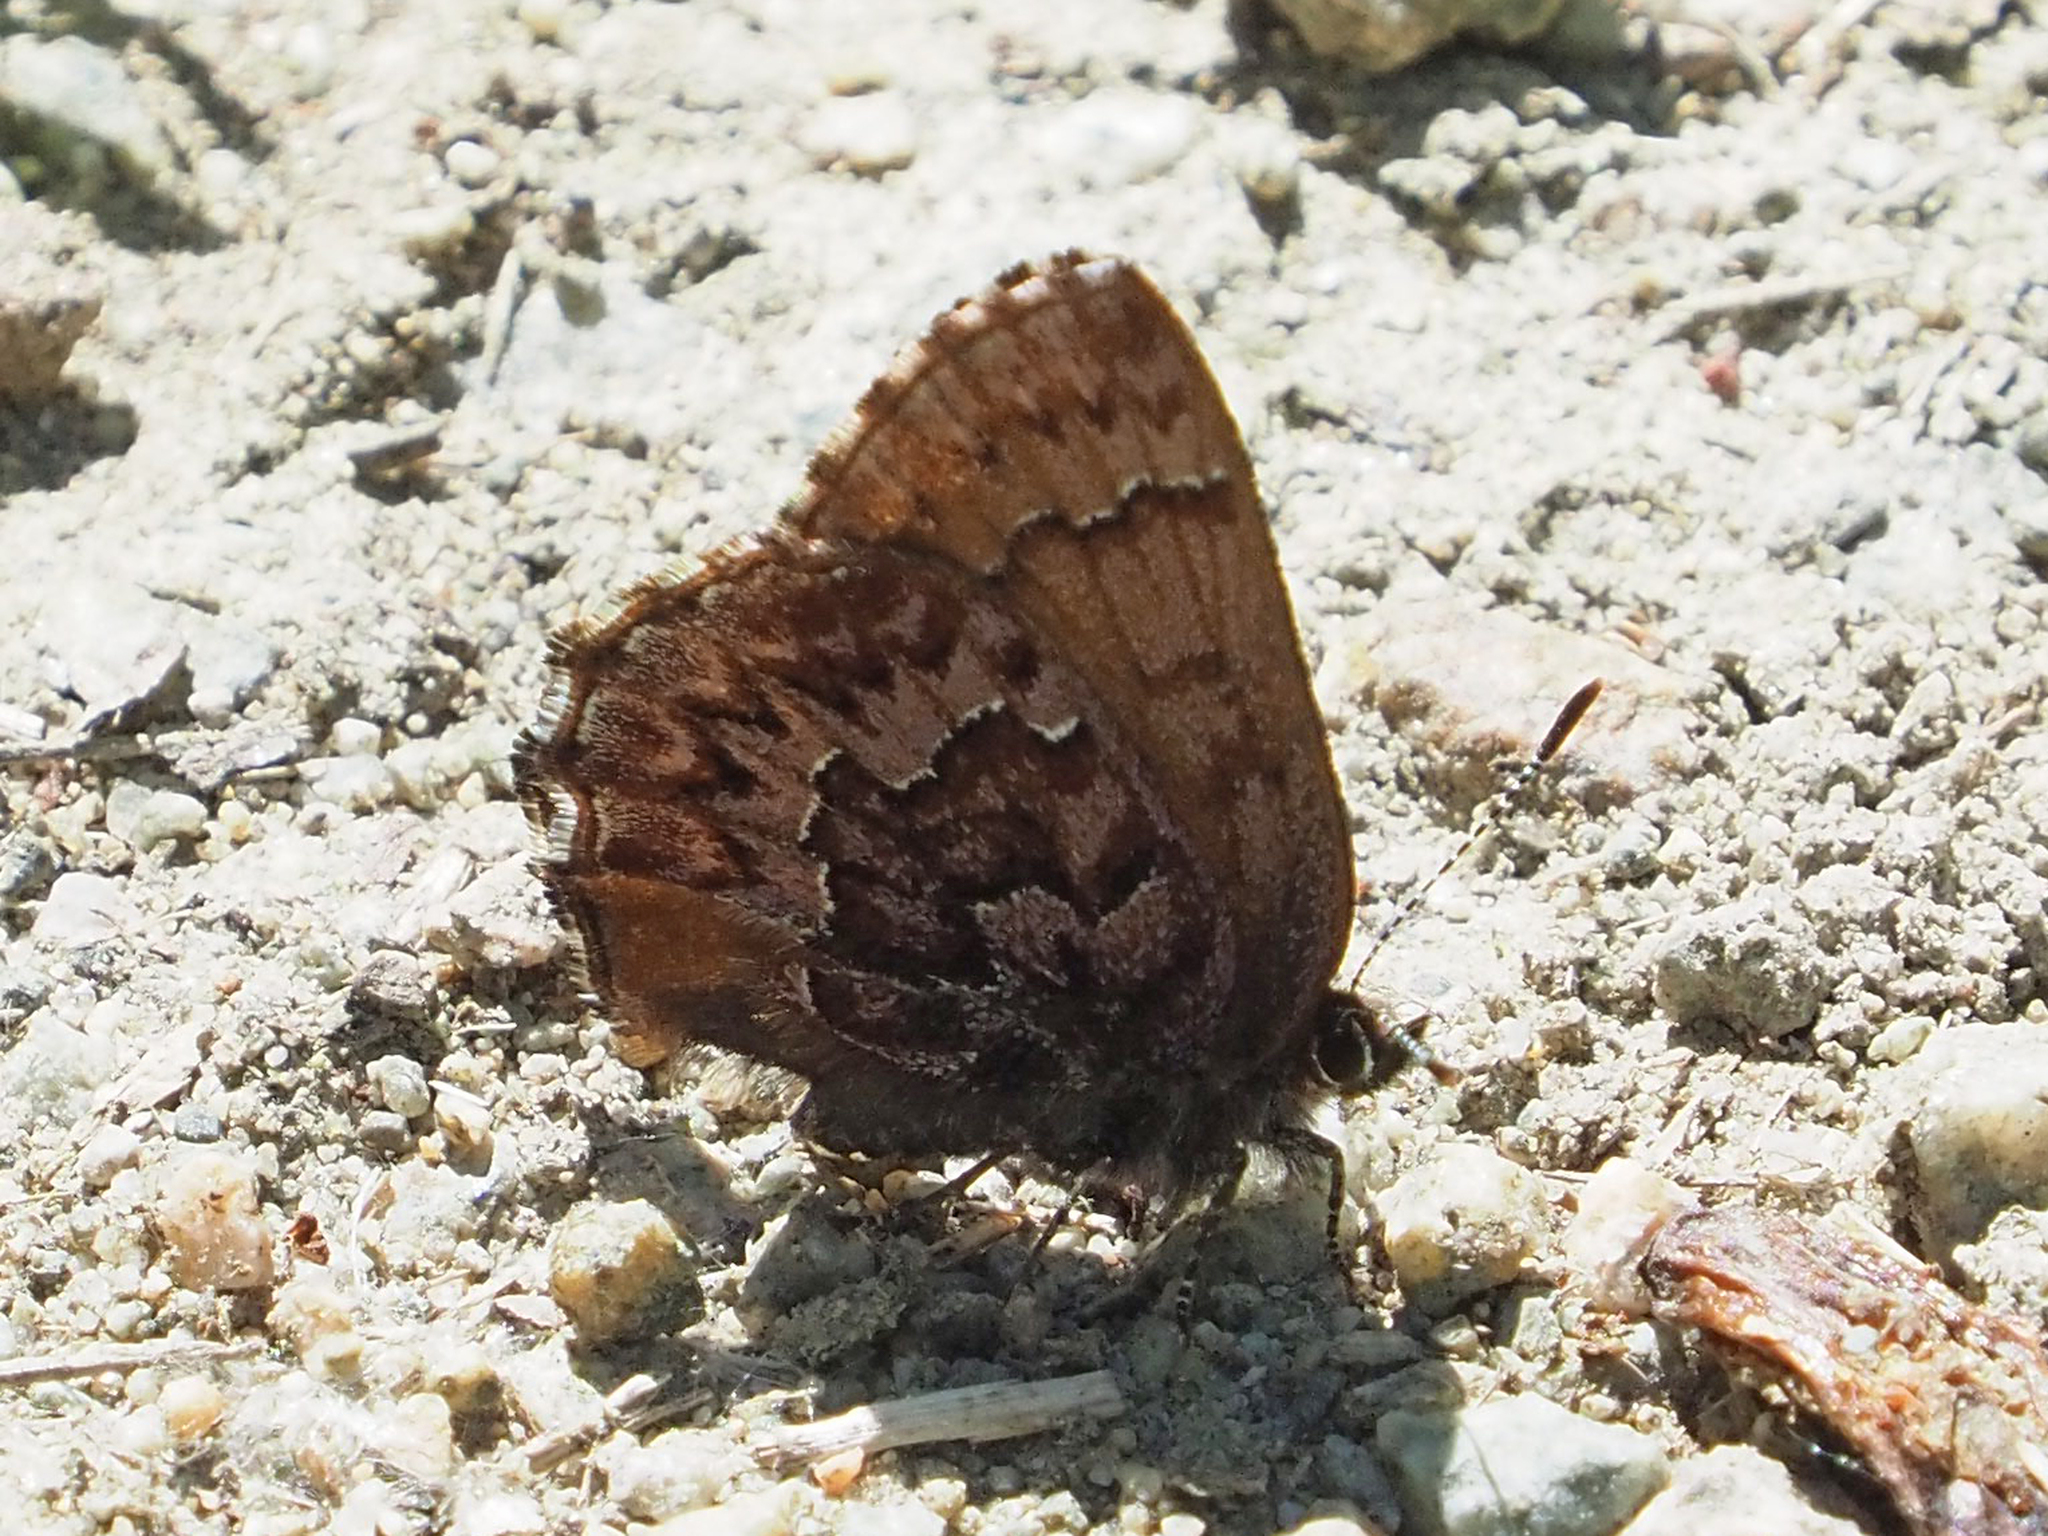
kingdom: Animalia
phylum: Arthropoda
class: Insecta
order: Lepidoptera
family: Lycaenidae
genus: Incisalia
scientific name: Incisalia eryphon
